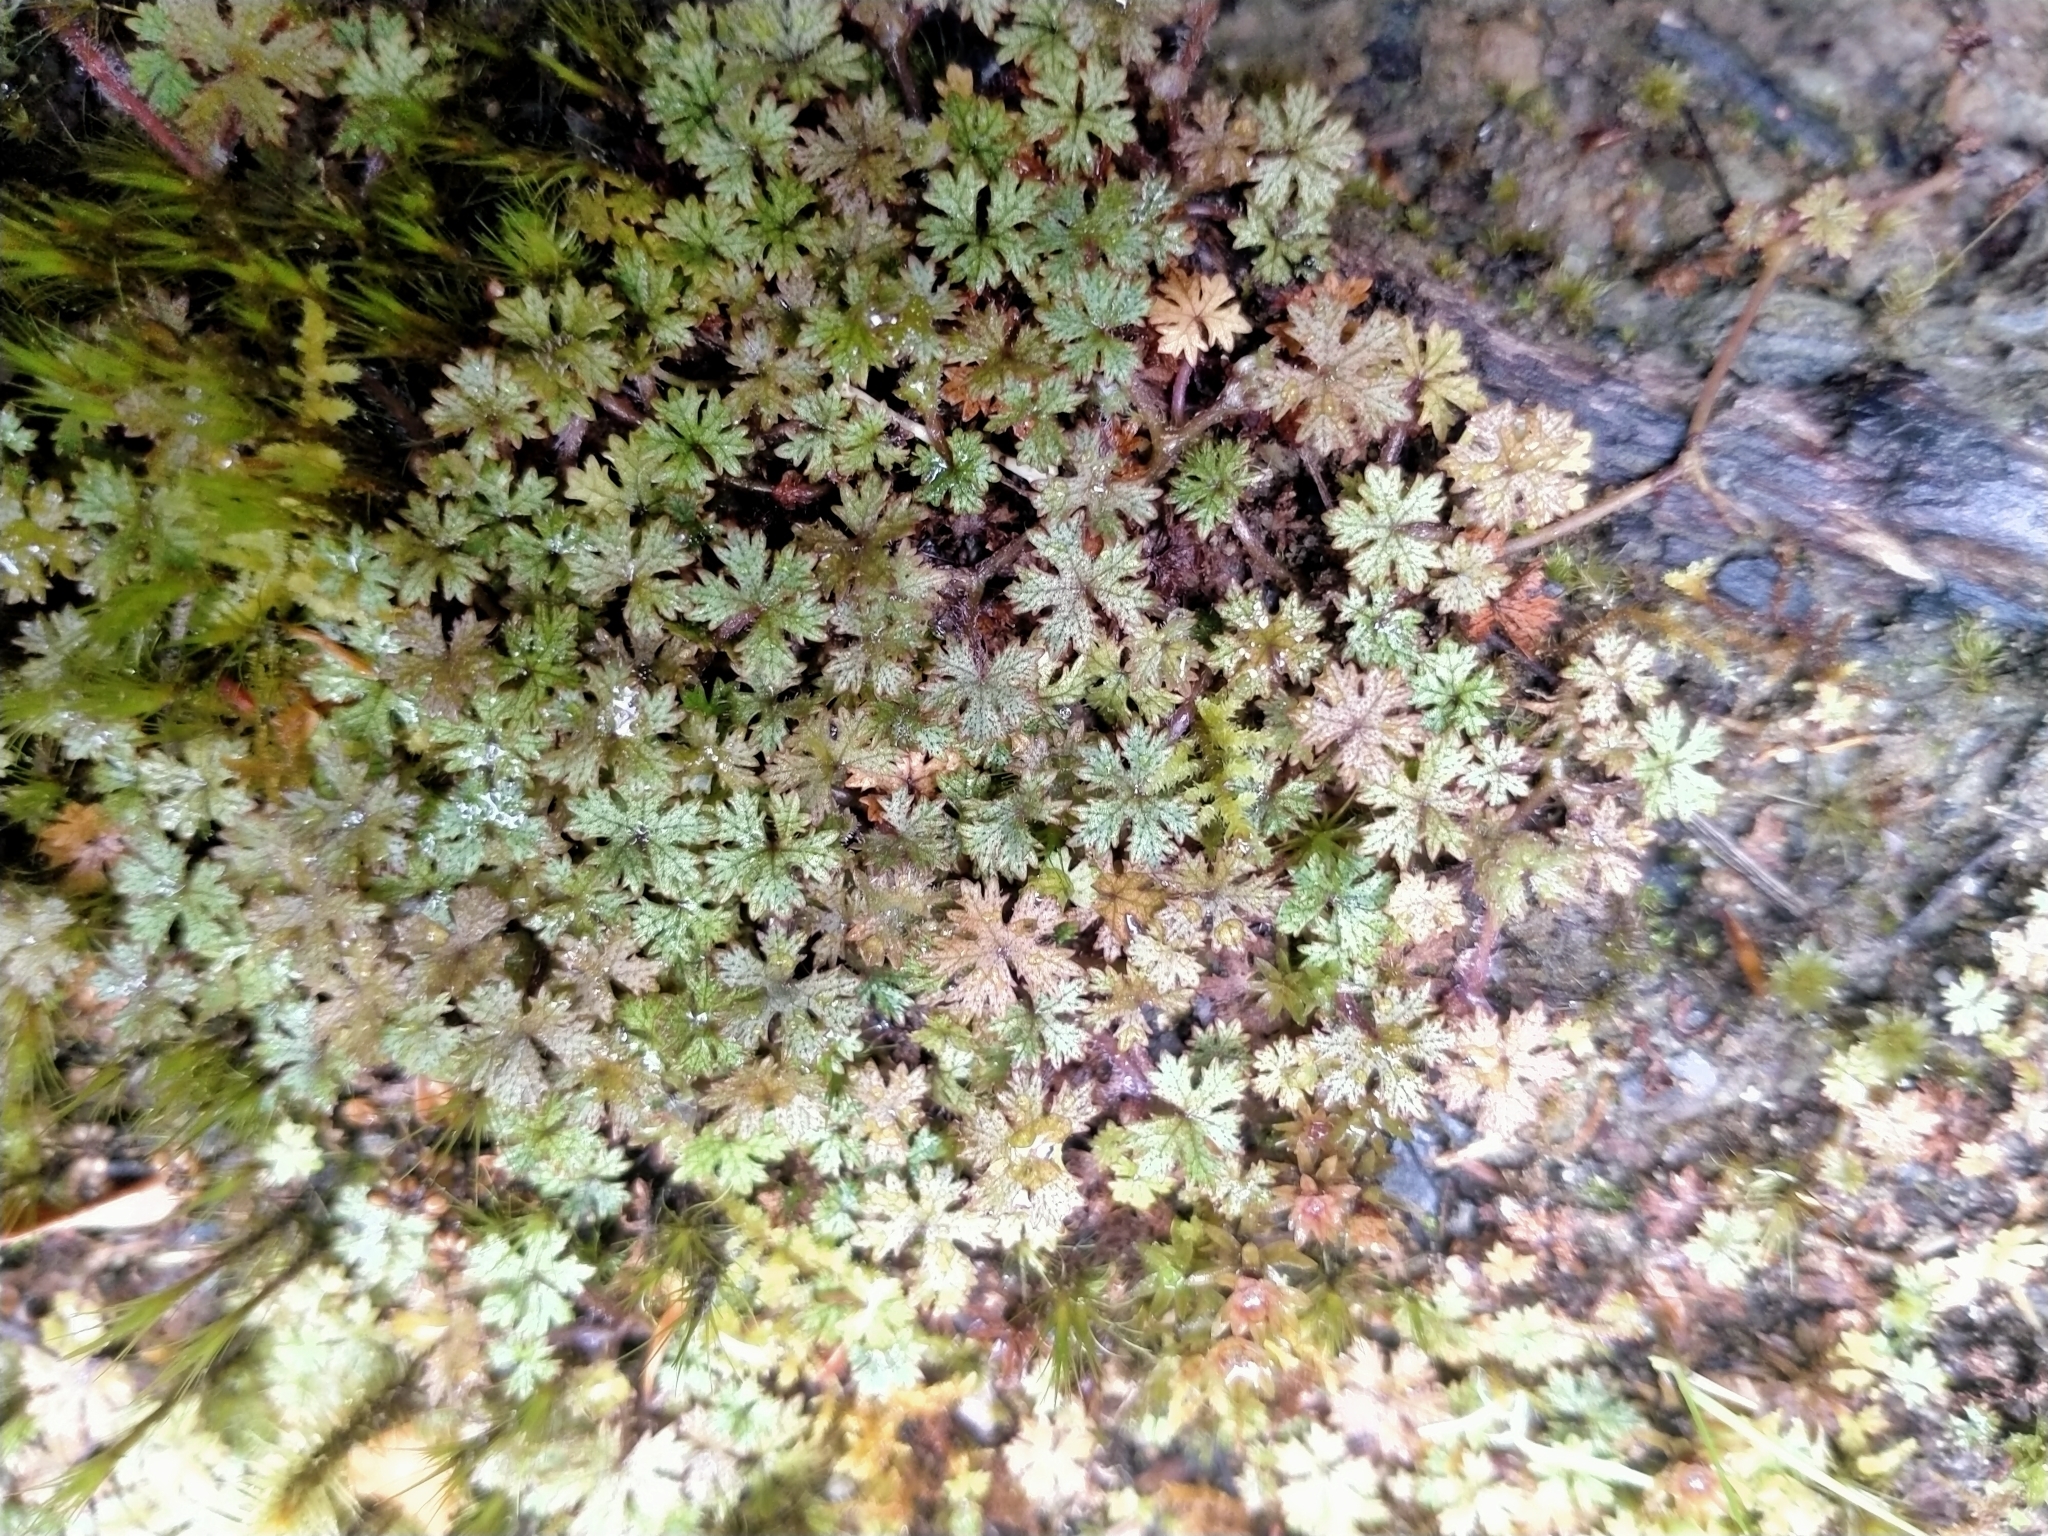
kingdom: Plantae
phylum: Tracheophyta
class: Magnoliopsida
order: Apiales
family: Araliaceae
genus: Hydrocotyle
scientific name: Hydrocotyle dissecta
